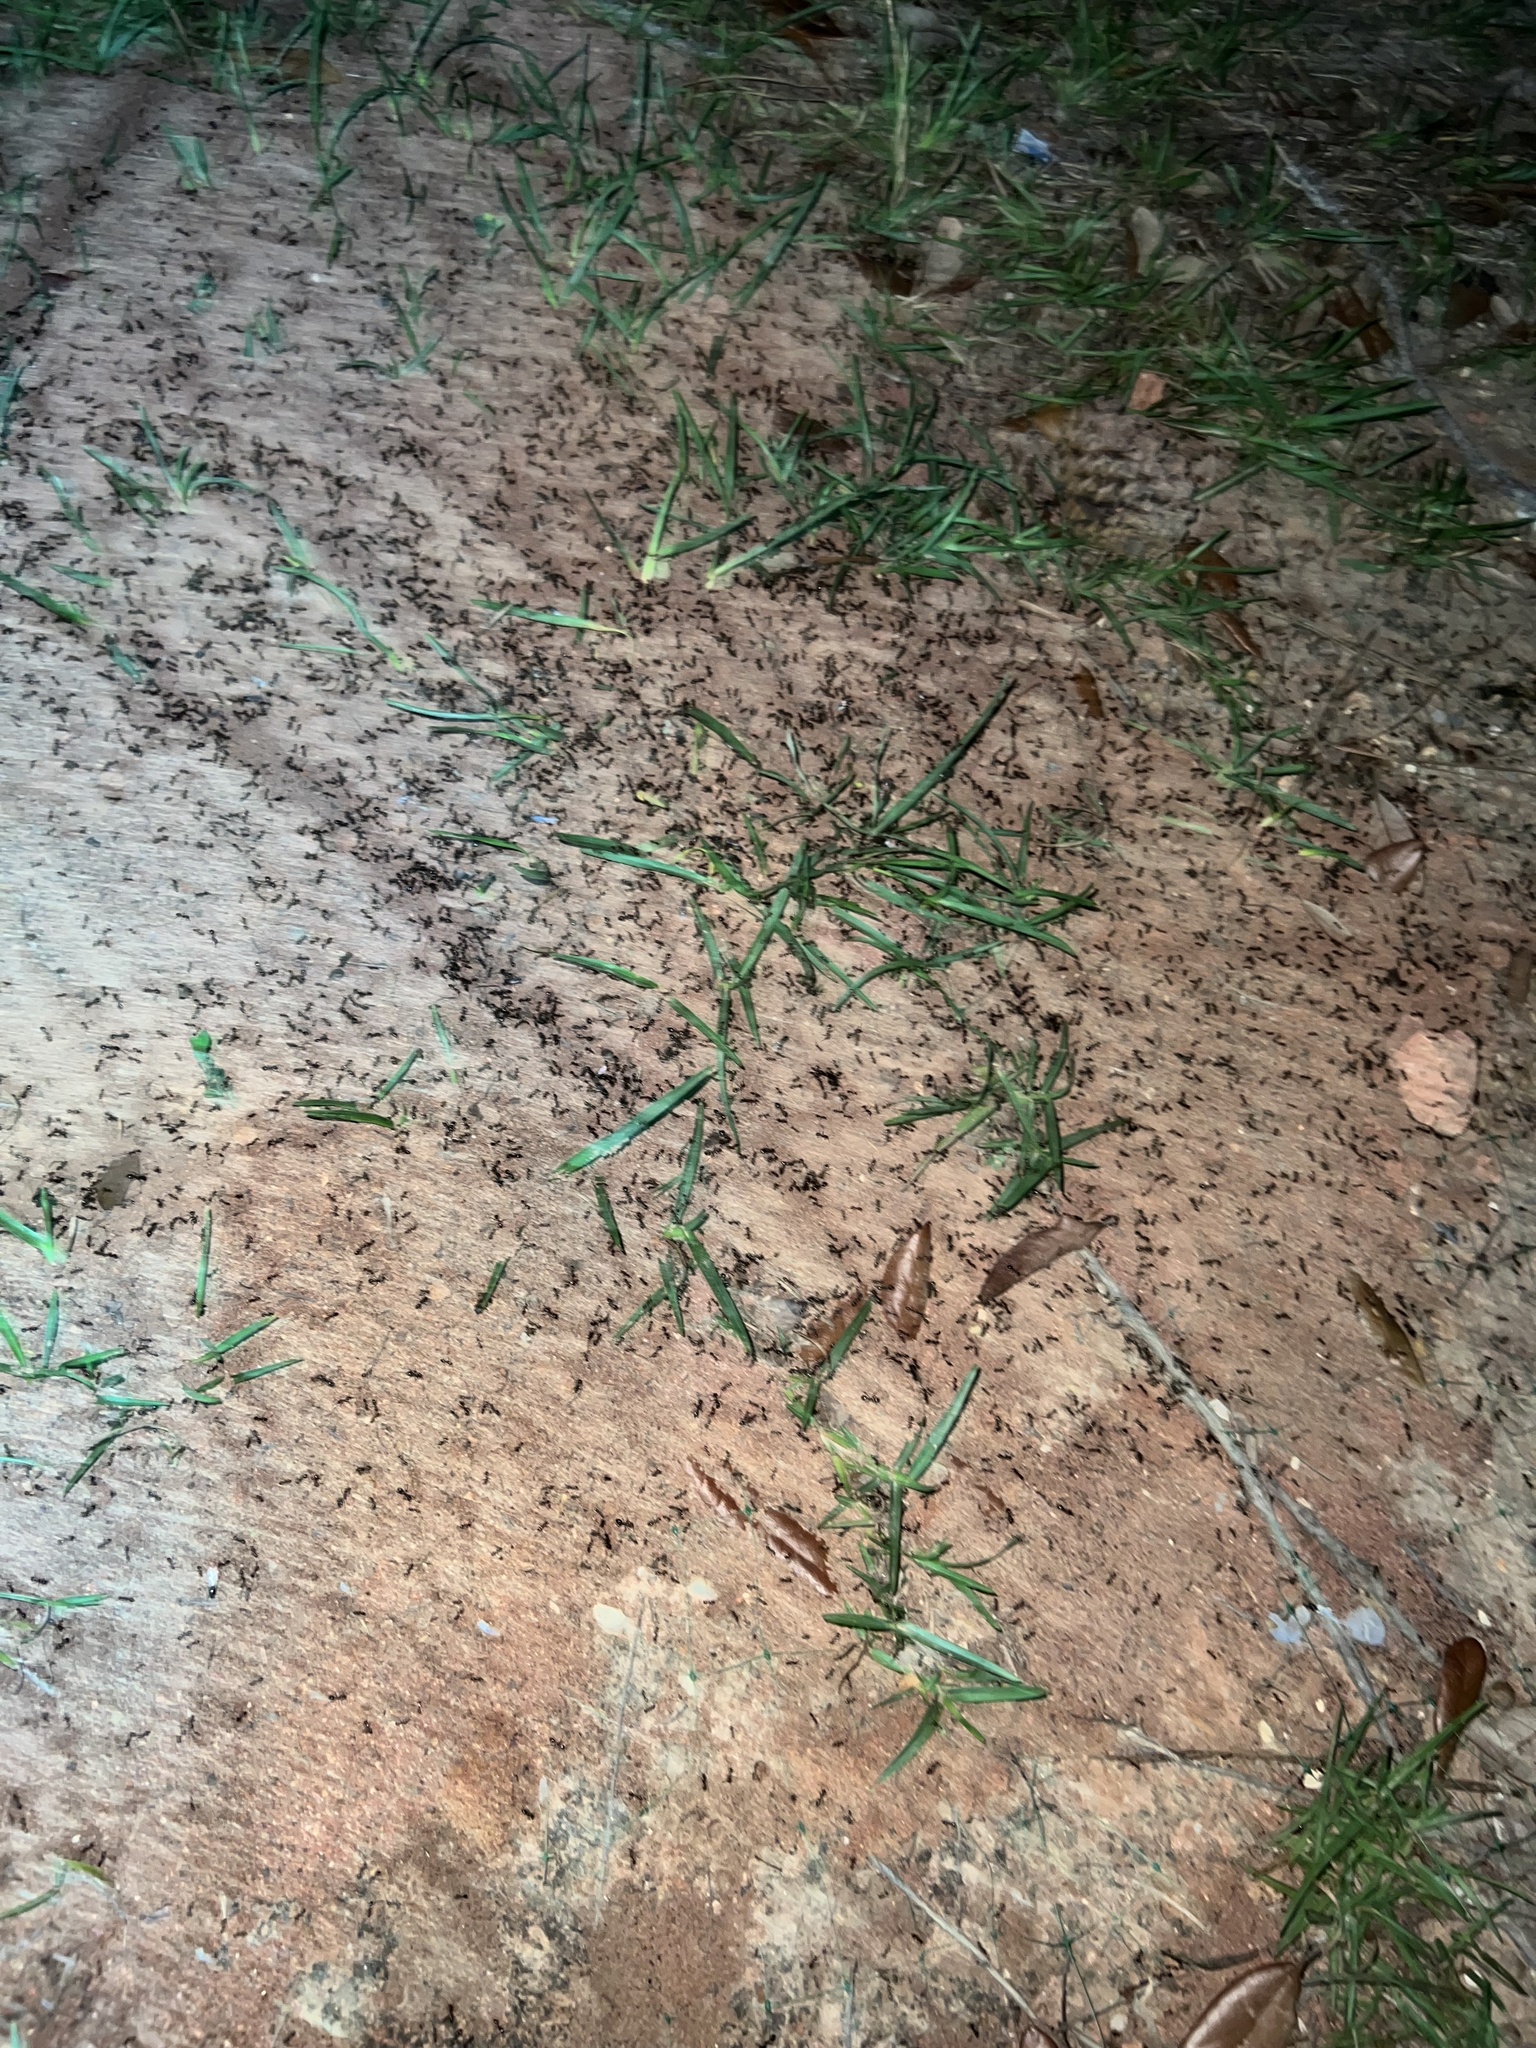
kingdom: Animalia
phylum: Arthropoda
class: Insecta
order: Hymenoptera
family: Formicidae
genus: Solenopsis
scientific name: Solenopsis invicta
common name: Red imported fire ant
